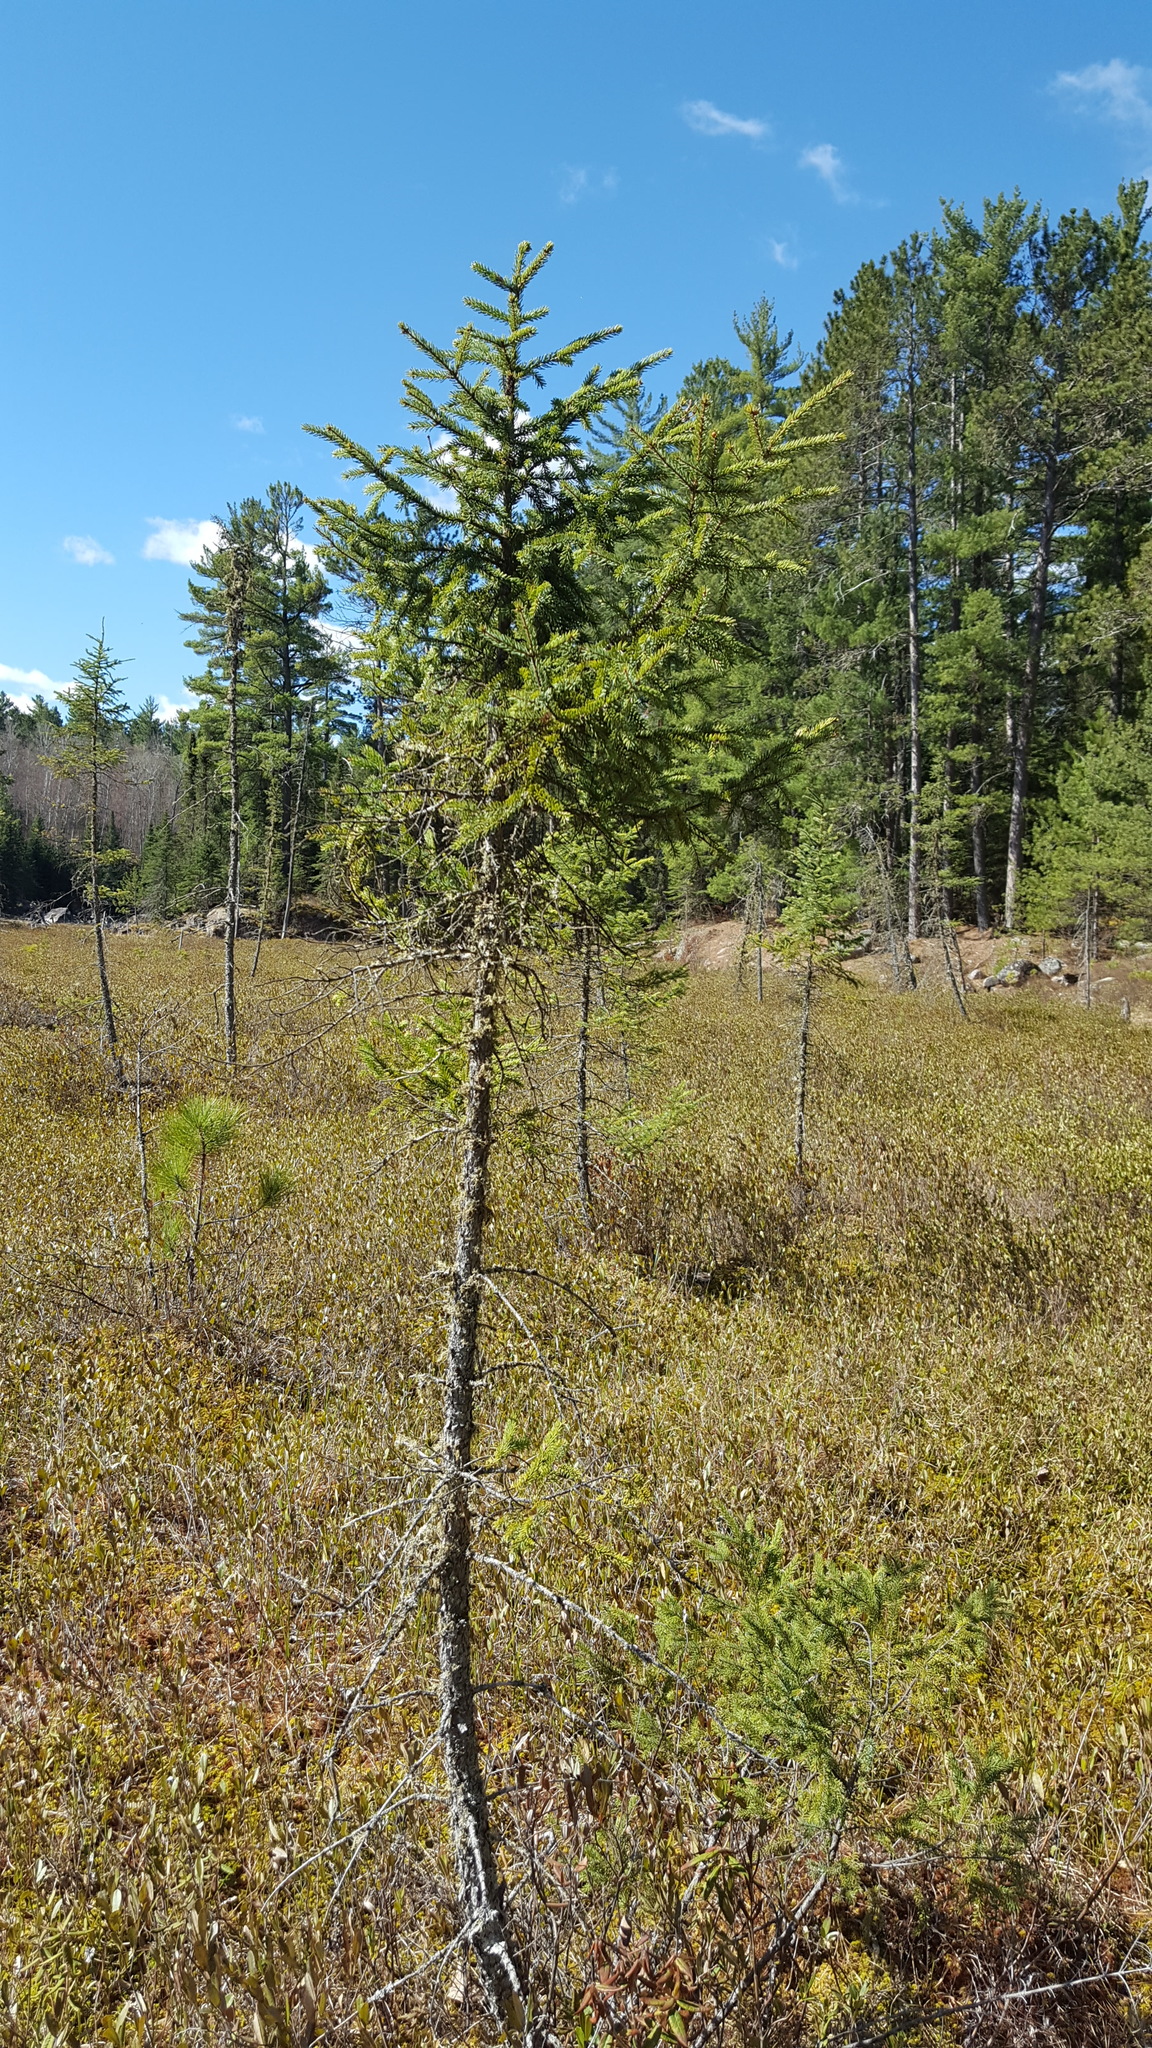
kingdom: Plantae
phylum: Tracheophyta
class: Pinopsida
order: Pinales
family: Pinaceae
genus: Picea
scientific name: Picea mariana
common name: Black spruce
